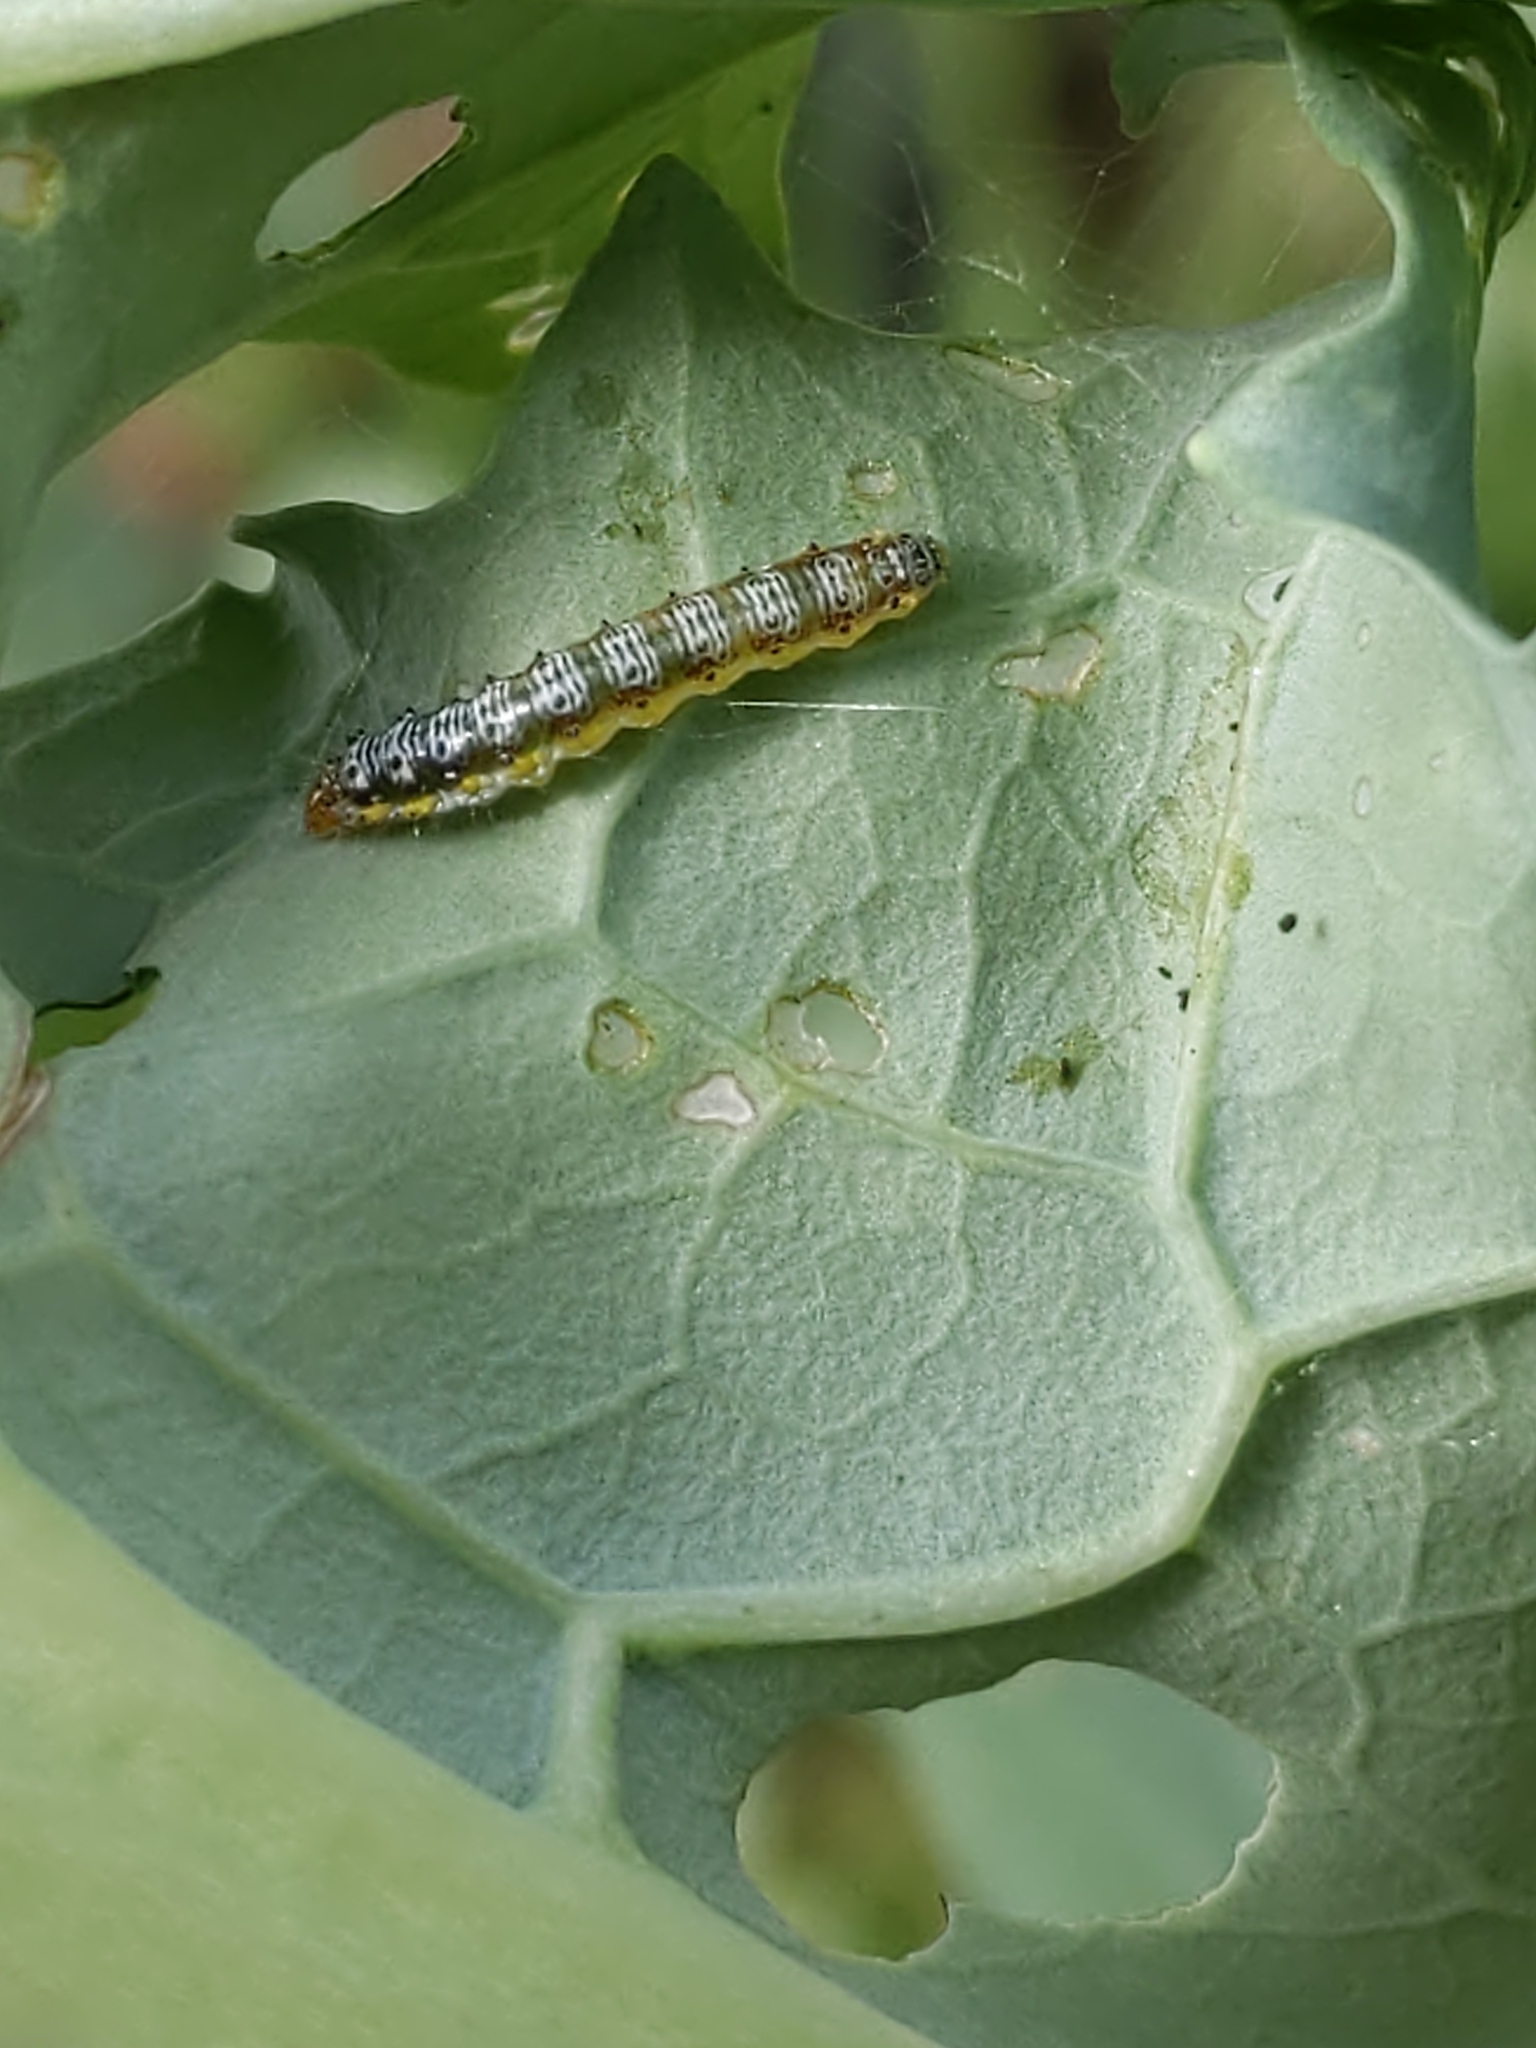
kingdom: Animalia
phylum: Arthropoda
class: Insecta
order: Lepidoptera
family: Crambidae
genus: Evergestis
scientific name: Evergestis rimosalis
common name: Cross-striped cabbageworm moth
